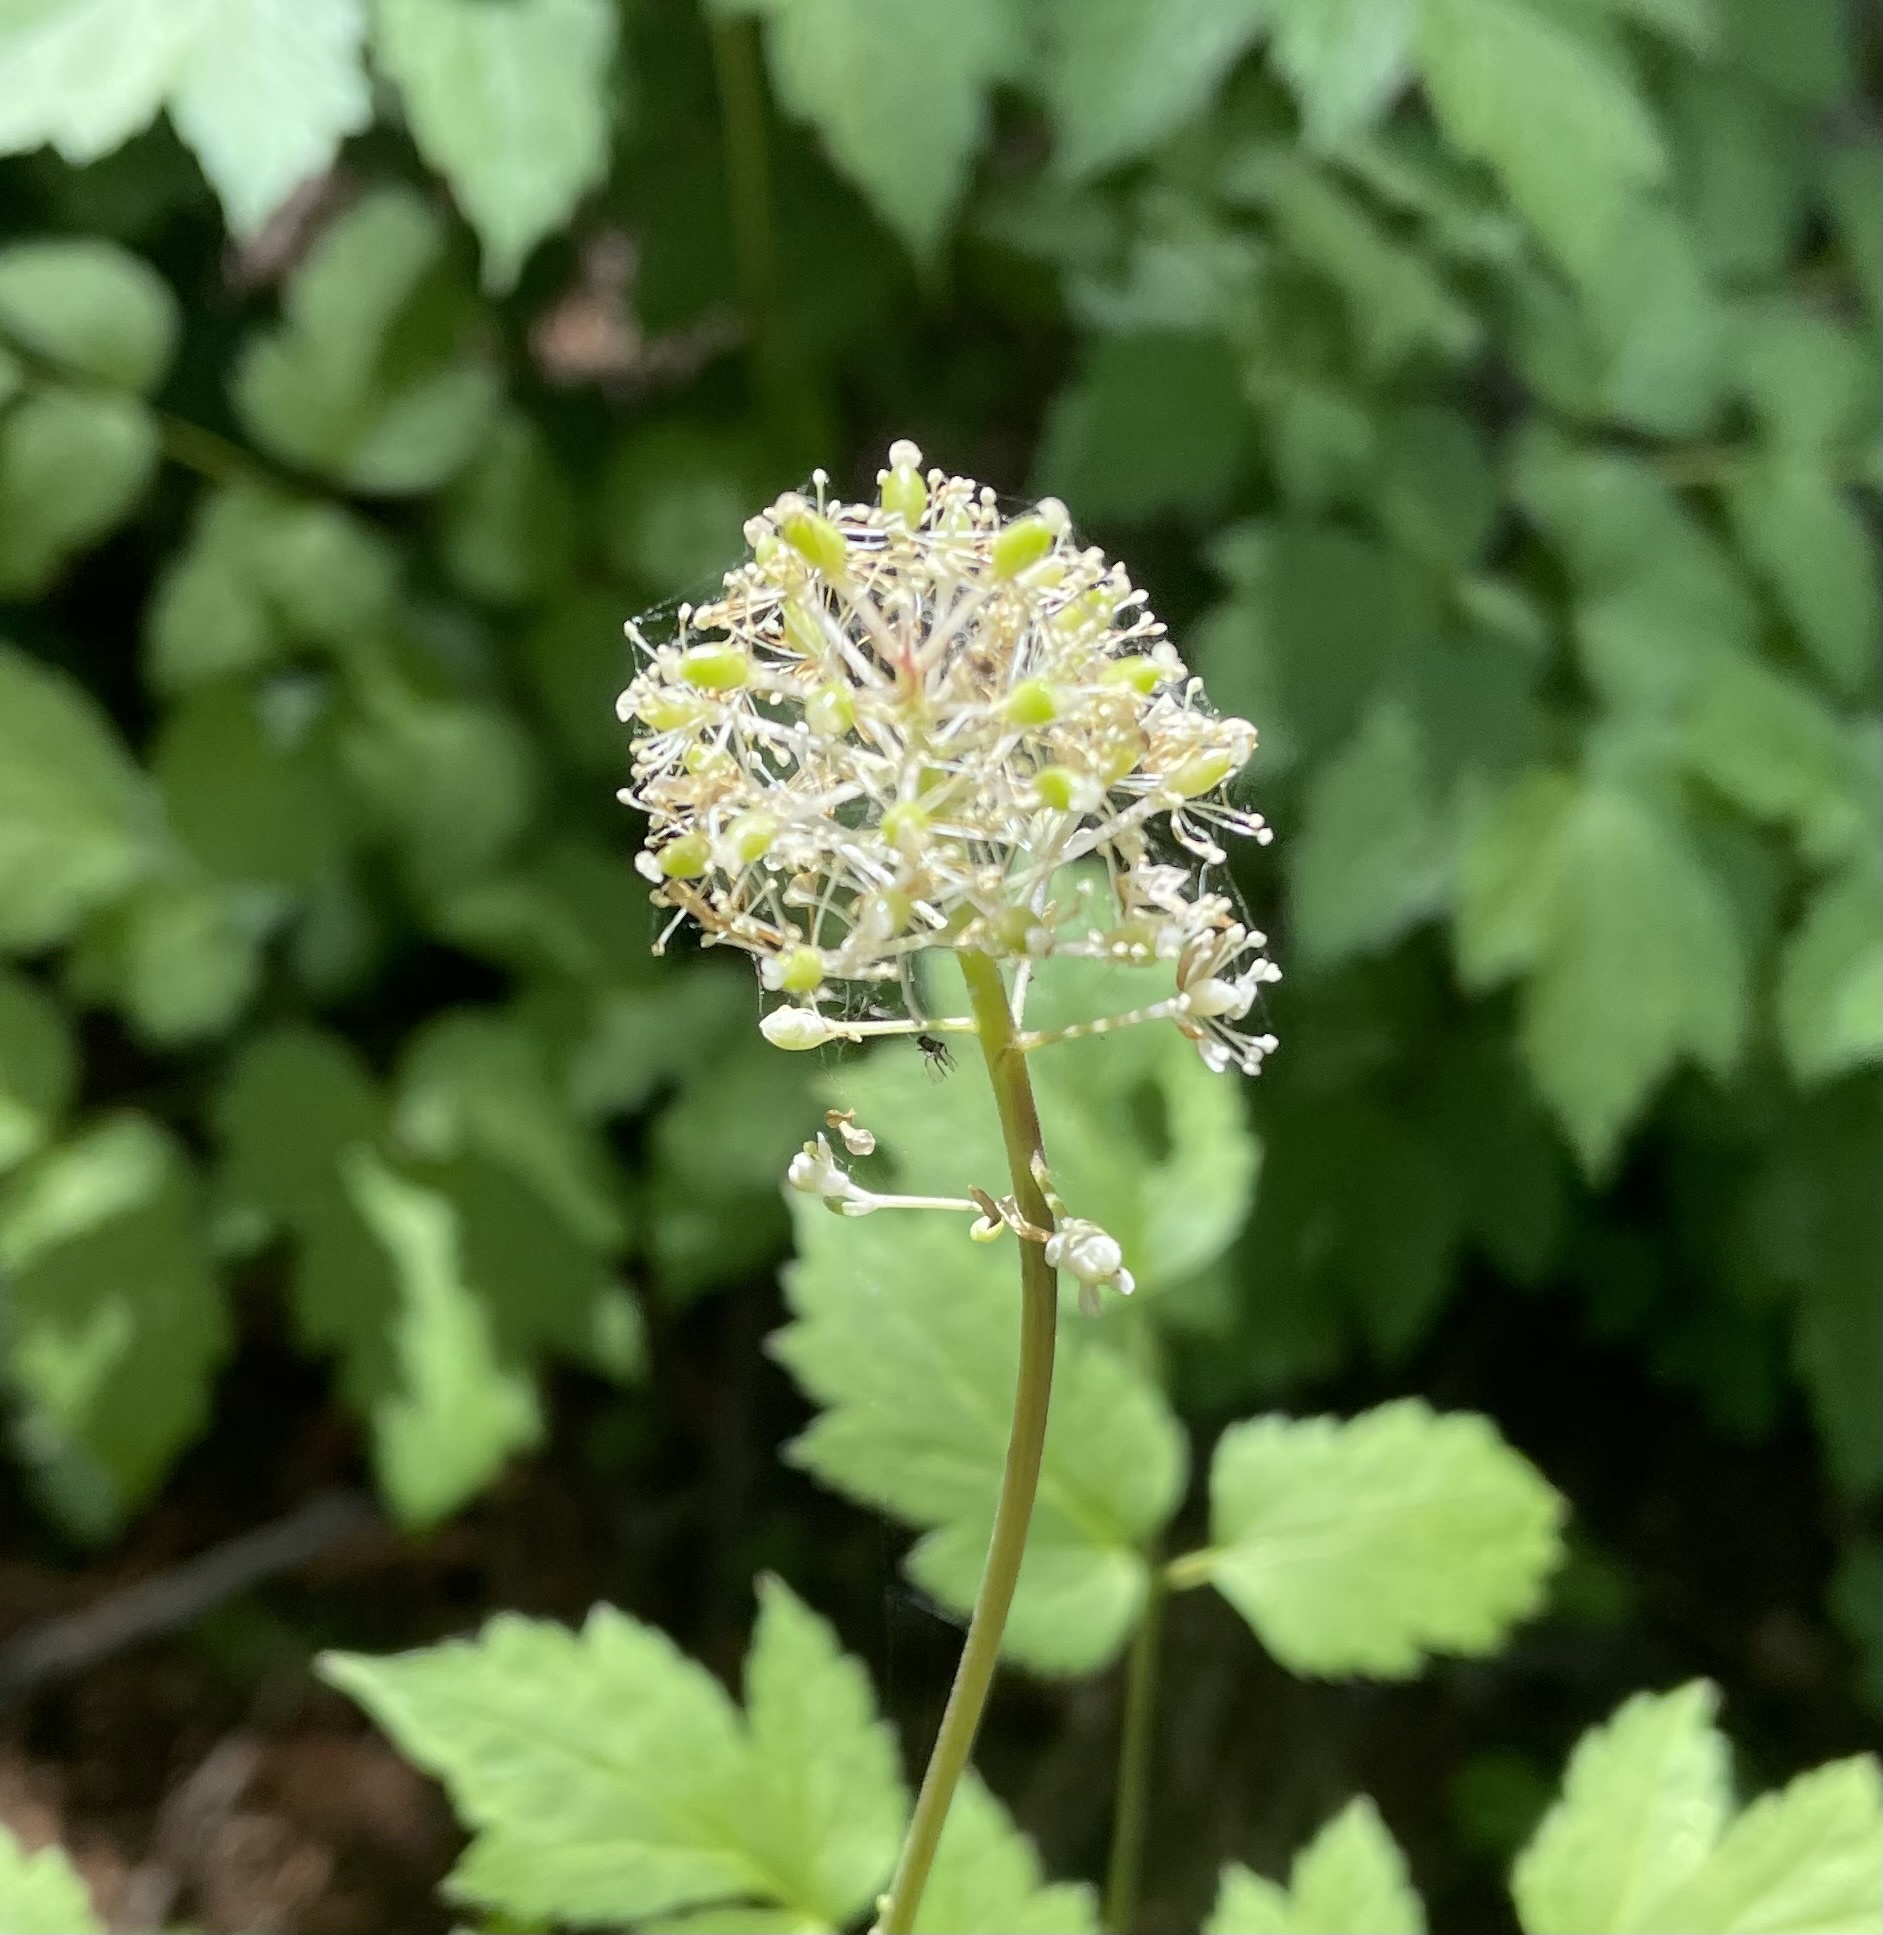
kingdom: Plantae
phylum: Tracheophyta
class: Magnoliopsida
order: Ranunculales
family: Ranunculaceae
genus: Actaea
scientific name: Actaea rubra
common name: Red baneberry
